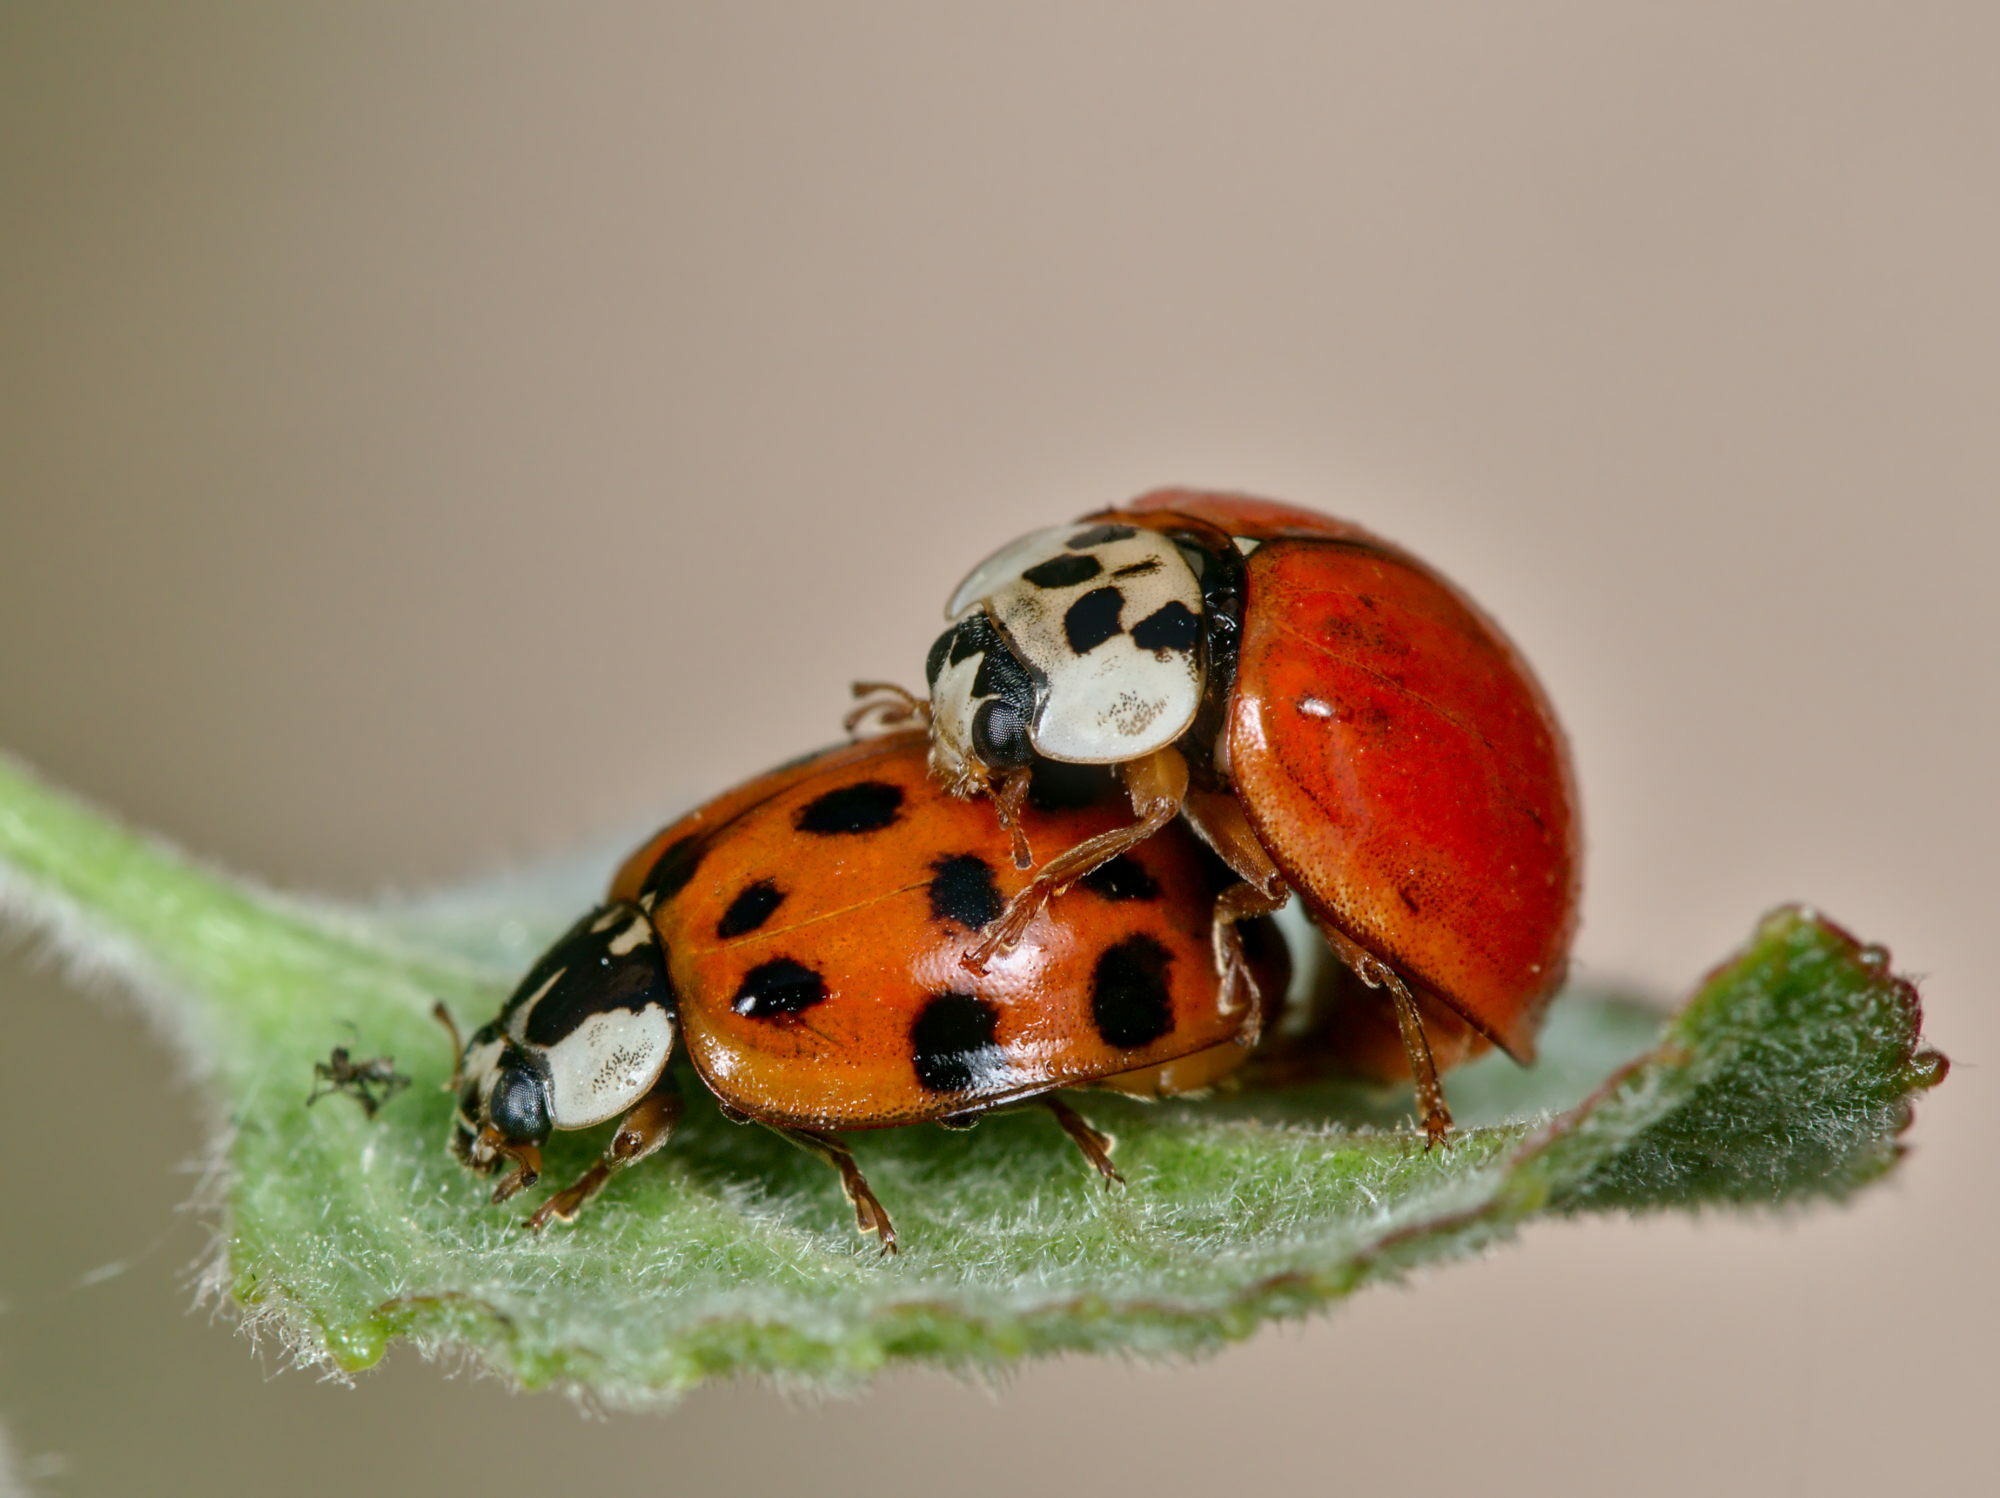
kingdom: Animalia
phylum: Arthropoda
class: Insecta
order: Coleoptera
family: Coccinellidae
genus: Harmonia
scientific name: Harmonia axyridis
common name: Harlequin ladybird
